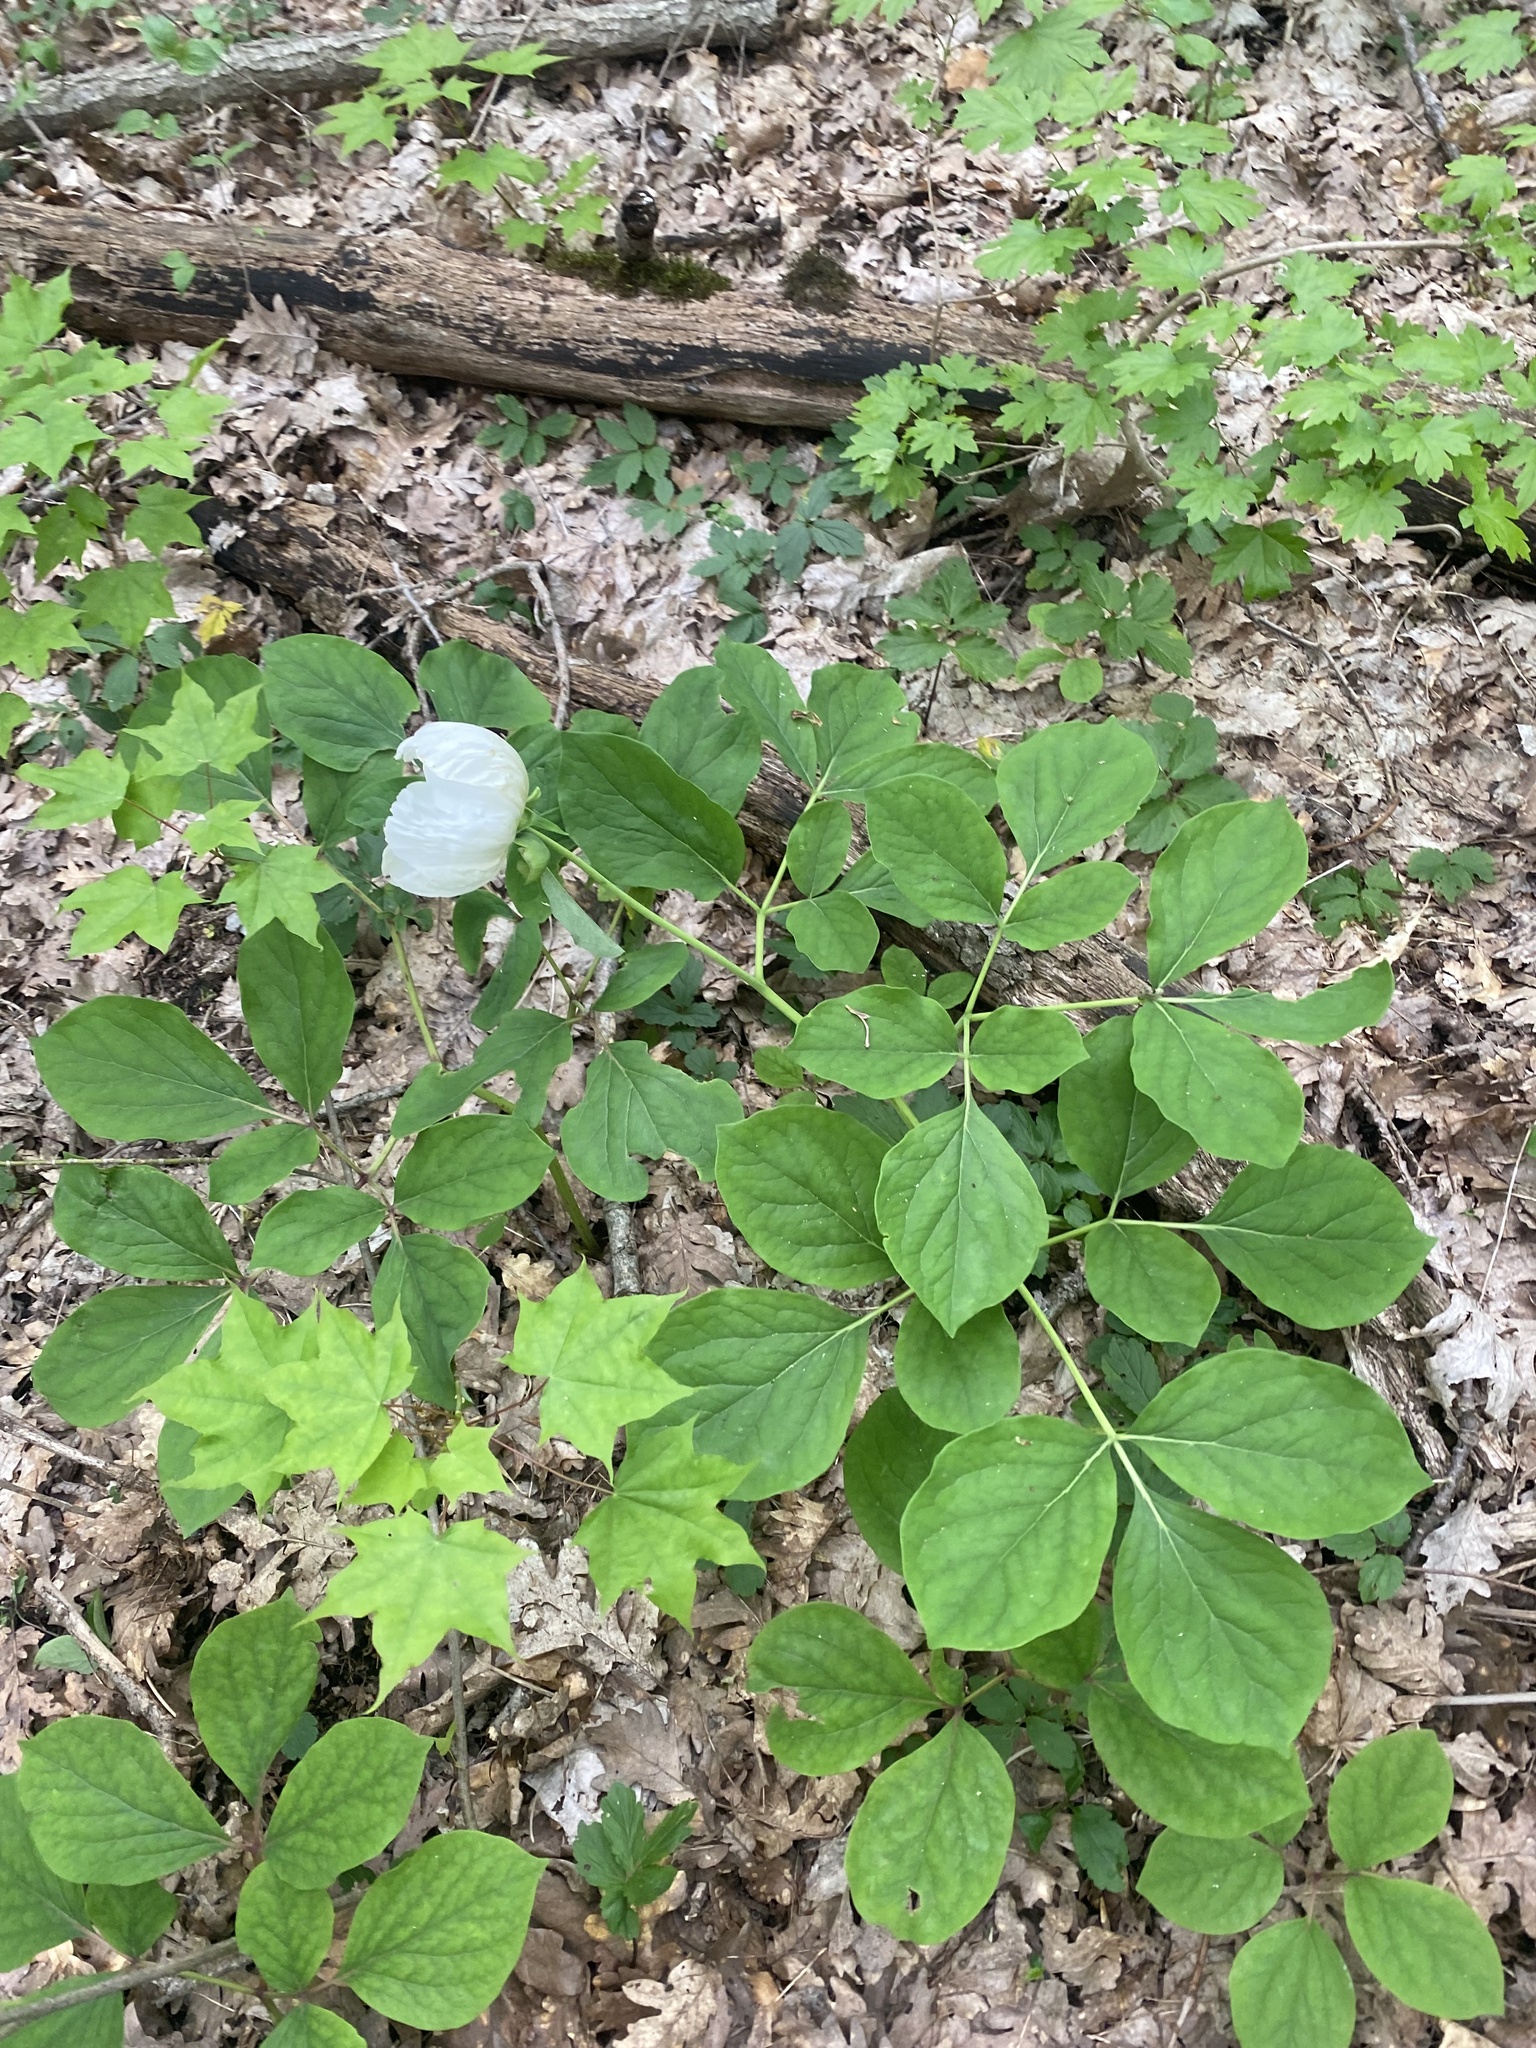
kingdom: Plantae
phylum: Tracheophyta
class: Magnoliopsida
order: Saxifragales
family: Paeoniaceae
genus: Paeonia
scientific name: Paeonia caucasica
